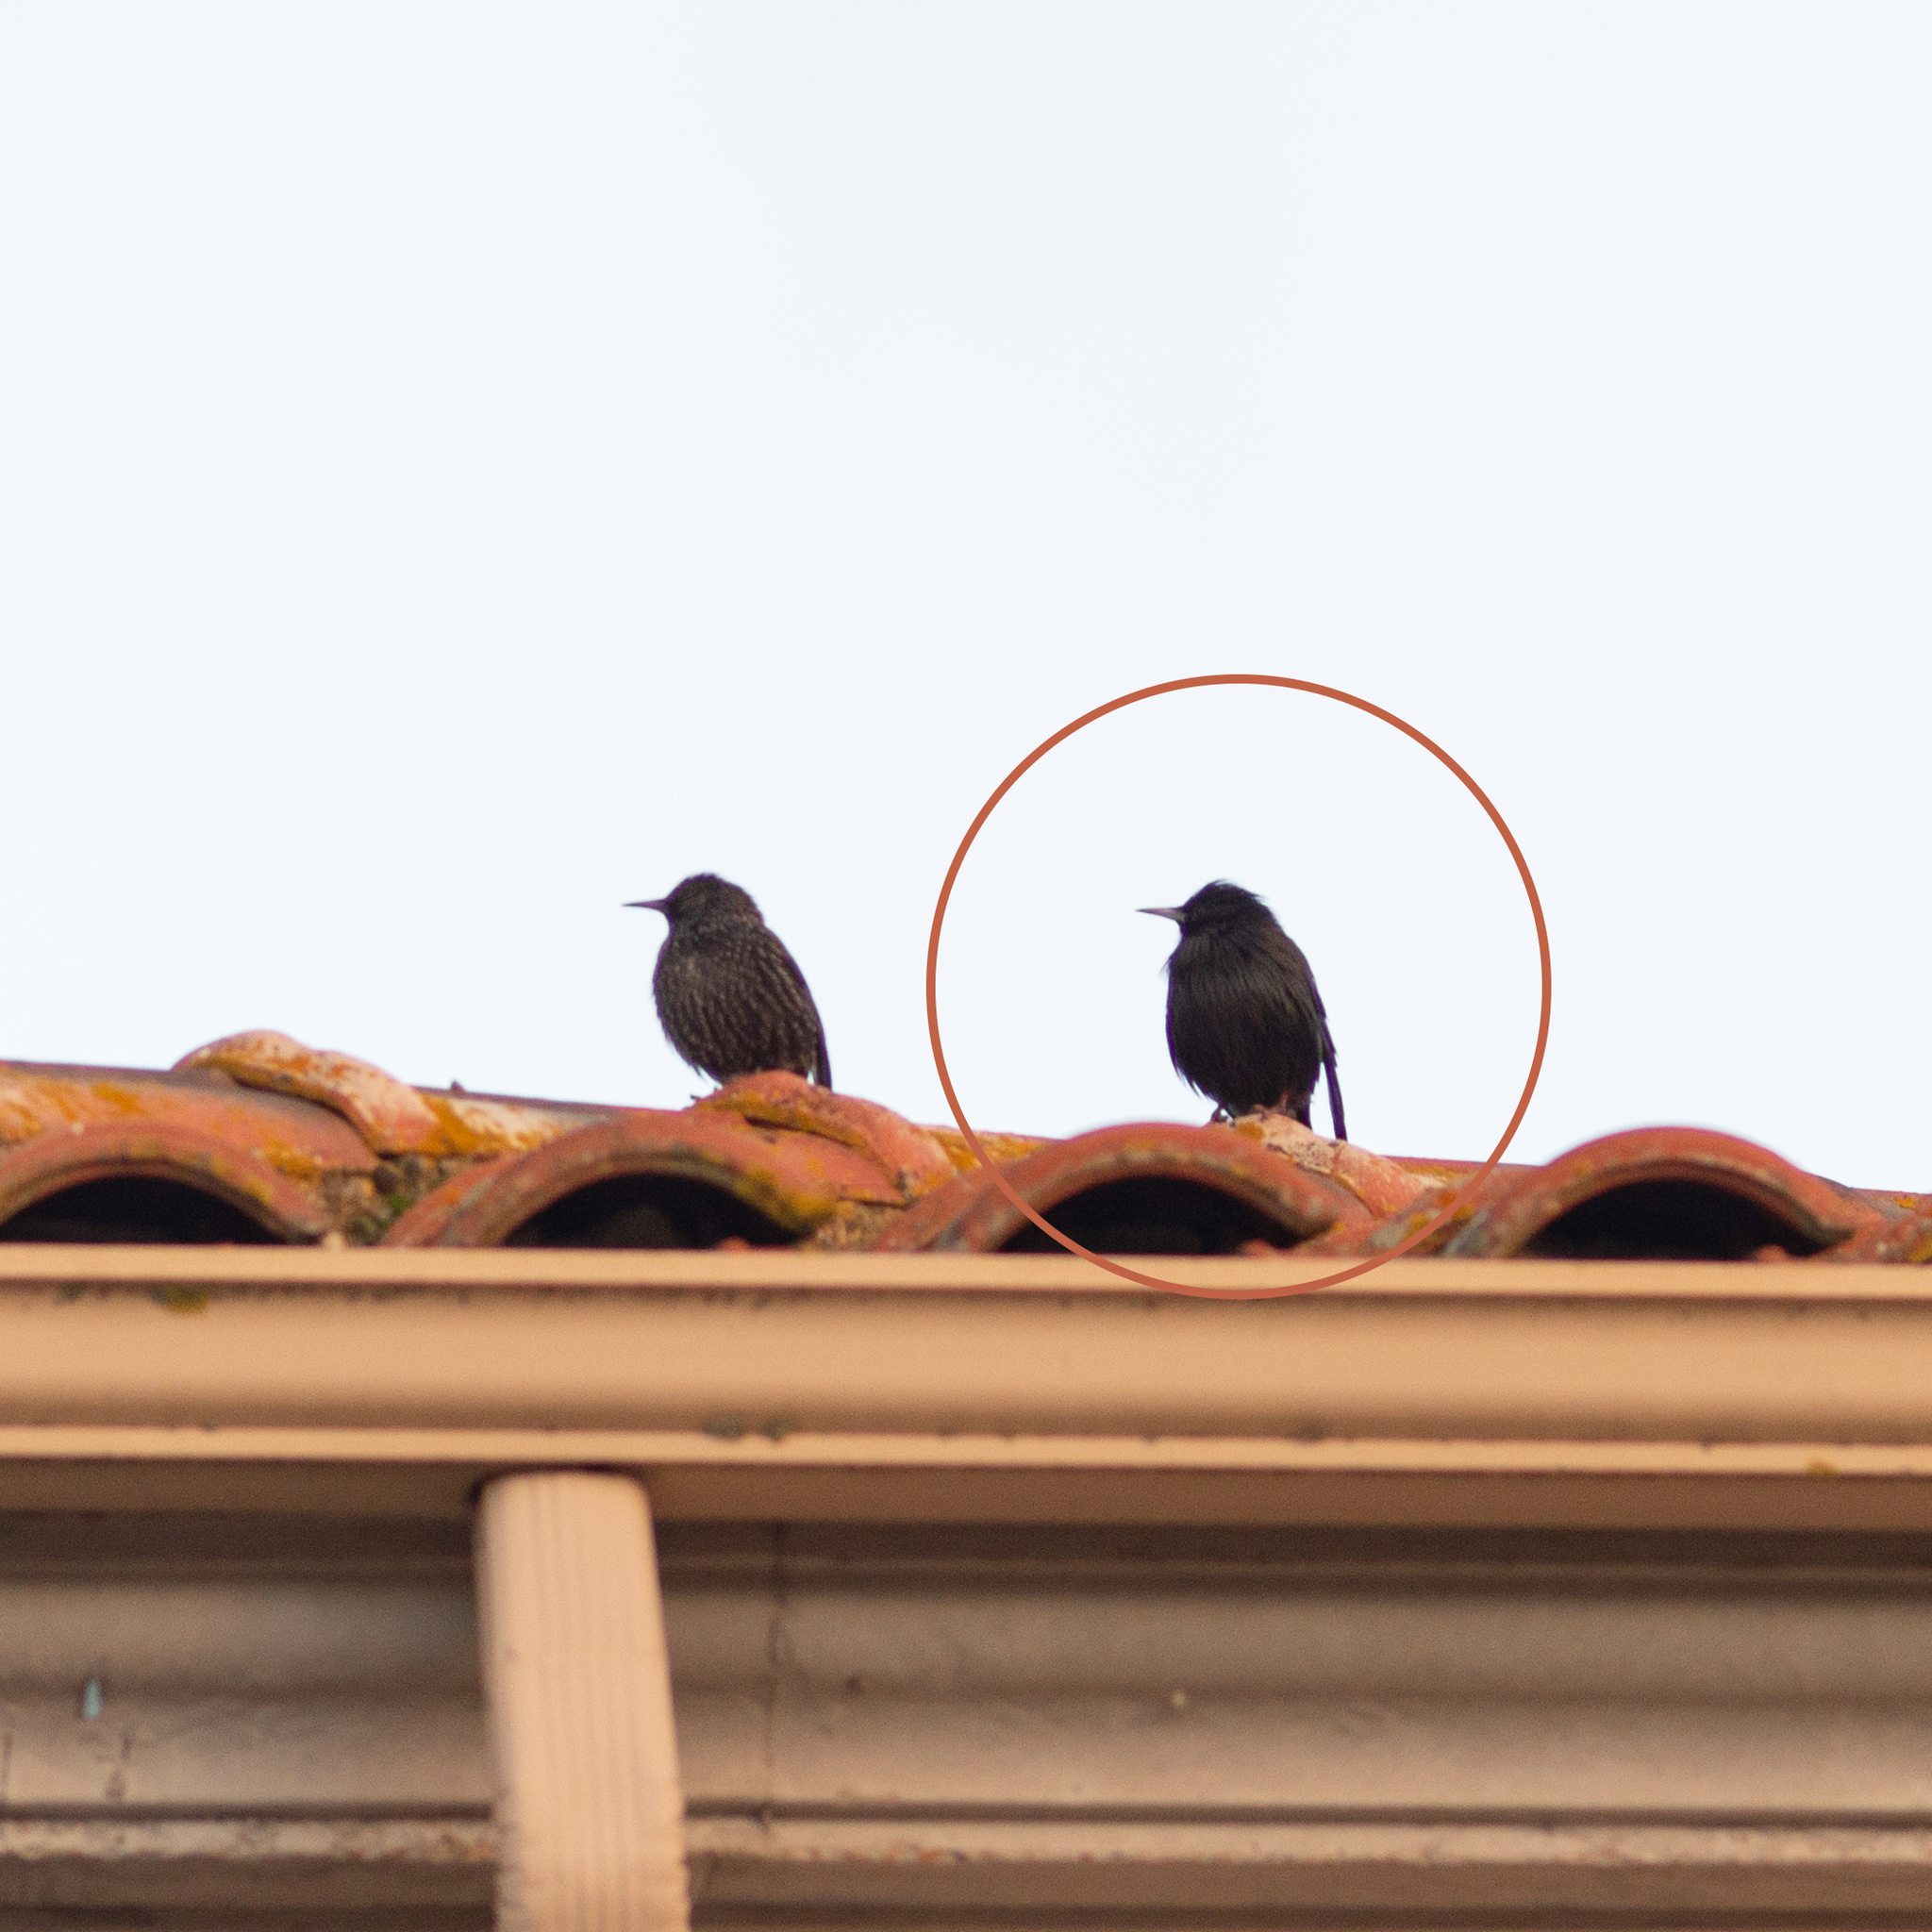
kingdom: Animalia
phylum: Chordata
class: Aves
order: Passeriformes
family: Sturnidae
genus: Sturnus
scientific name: Sturnus unicolor
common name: Spotless starling
